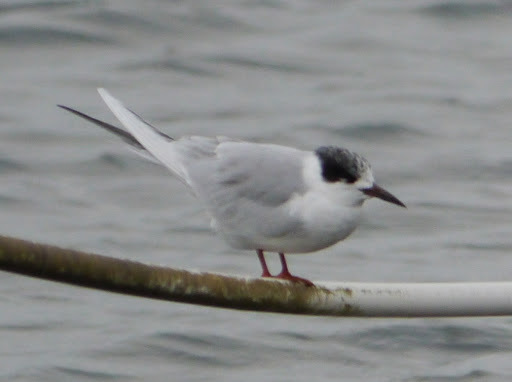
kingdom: Animalia
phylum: Chordata
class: Aves
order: Charadriiformes
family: Laridae
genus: Sterna
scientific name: Sterna forsteri
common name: Forster's tern
